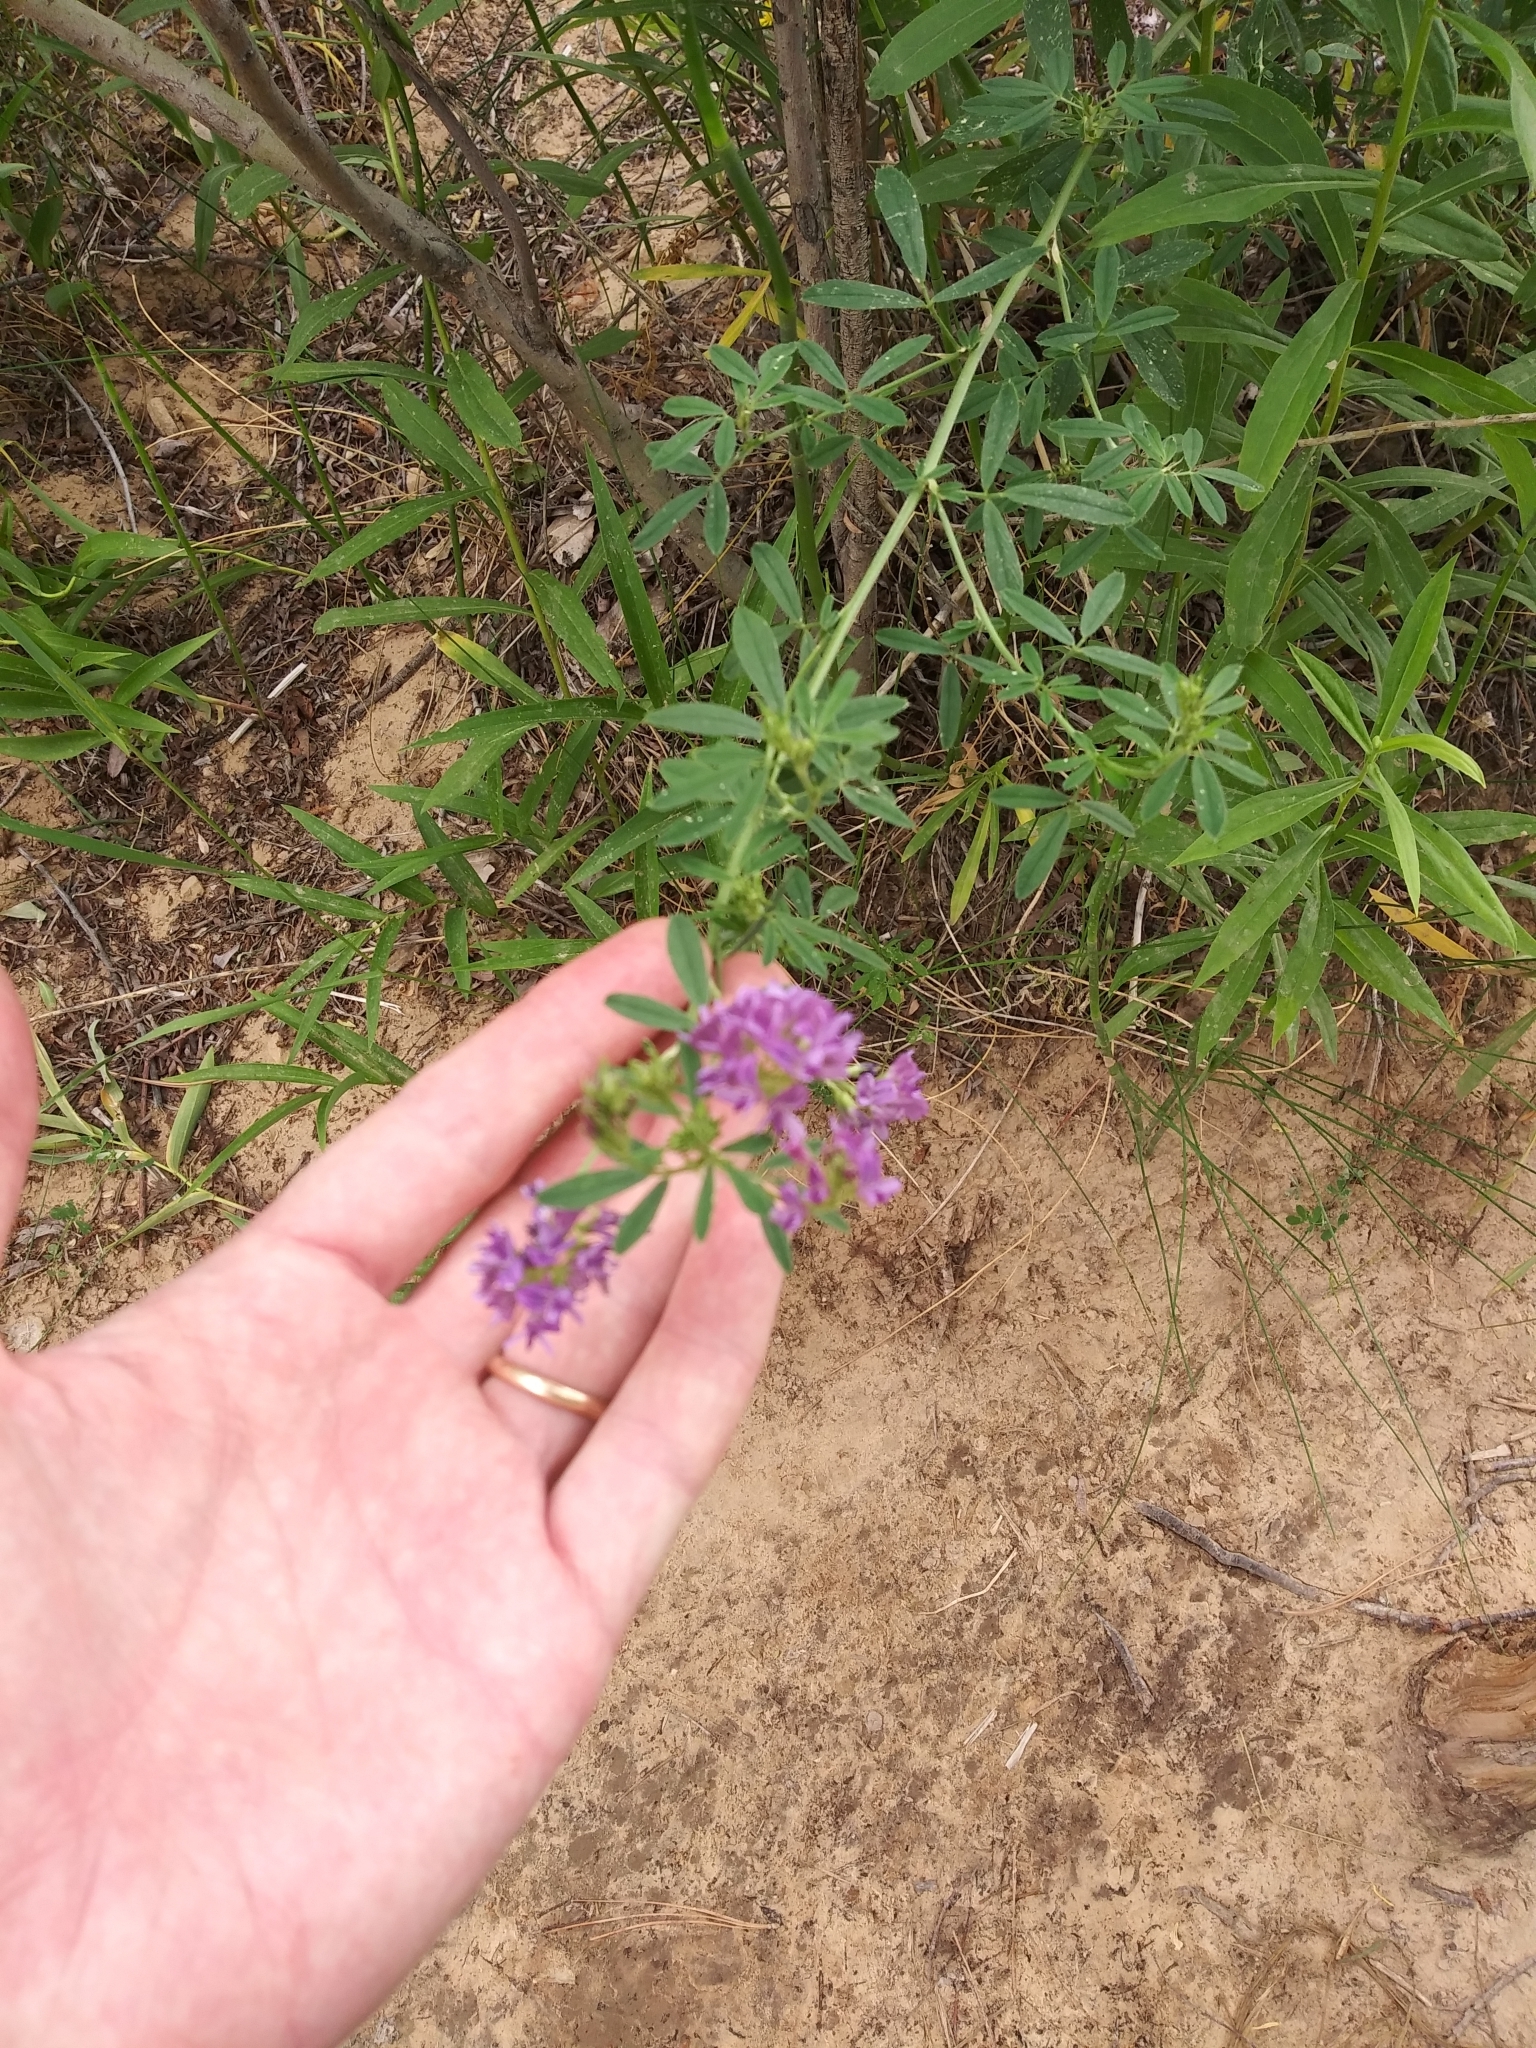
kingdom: Plantae
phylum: Tracheophyta
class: Magnoliopsida
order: Fabales
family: Fabaceae
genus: Medicago
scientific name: Medicago sativa
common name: Alfalfa
